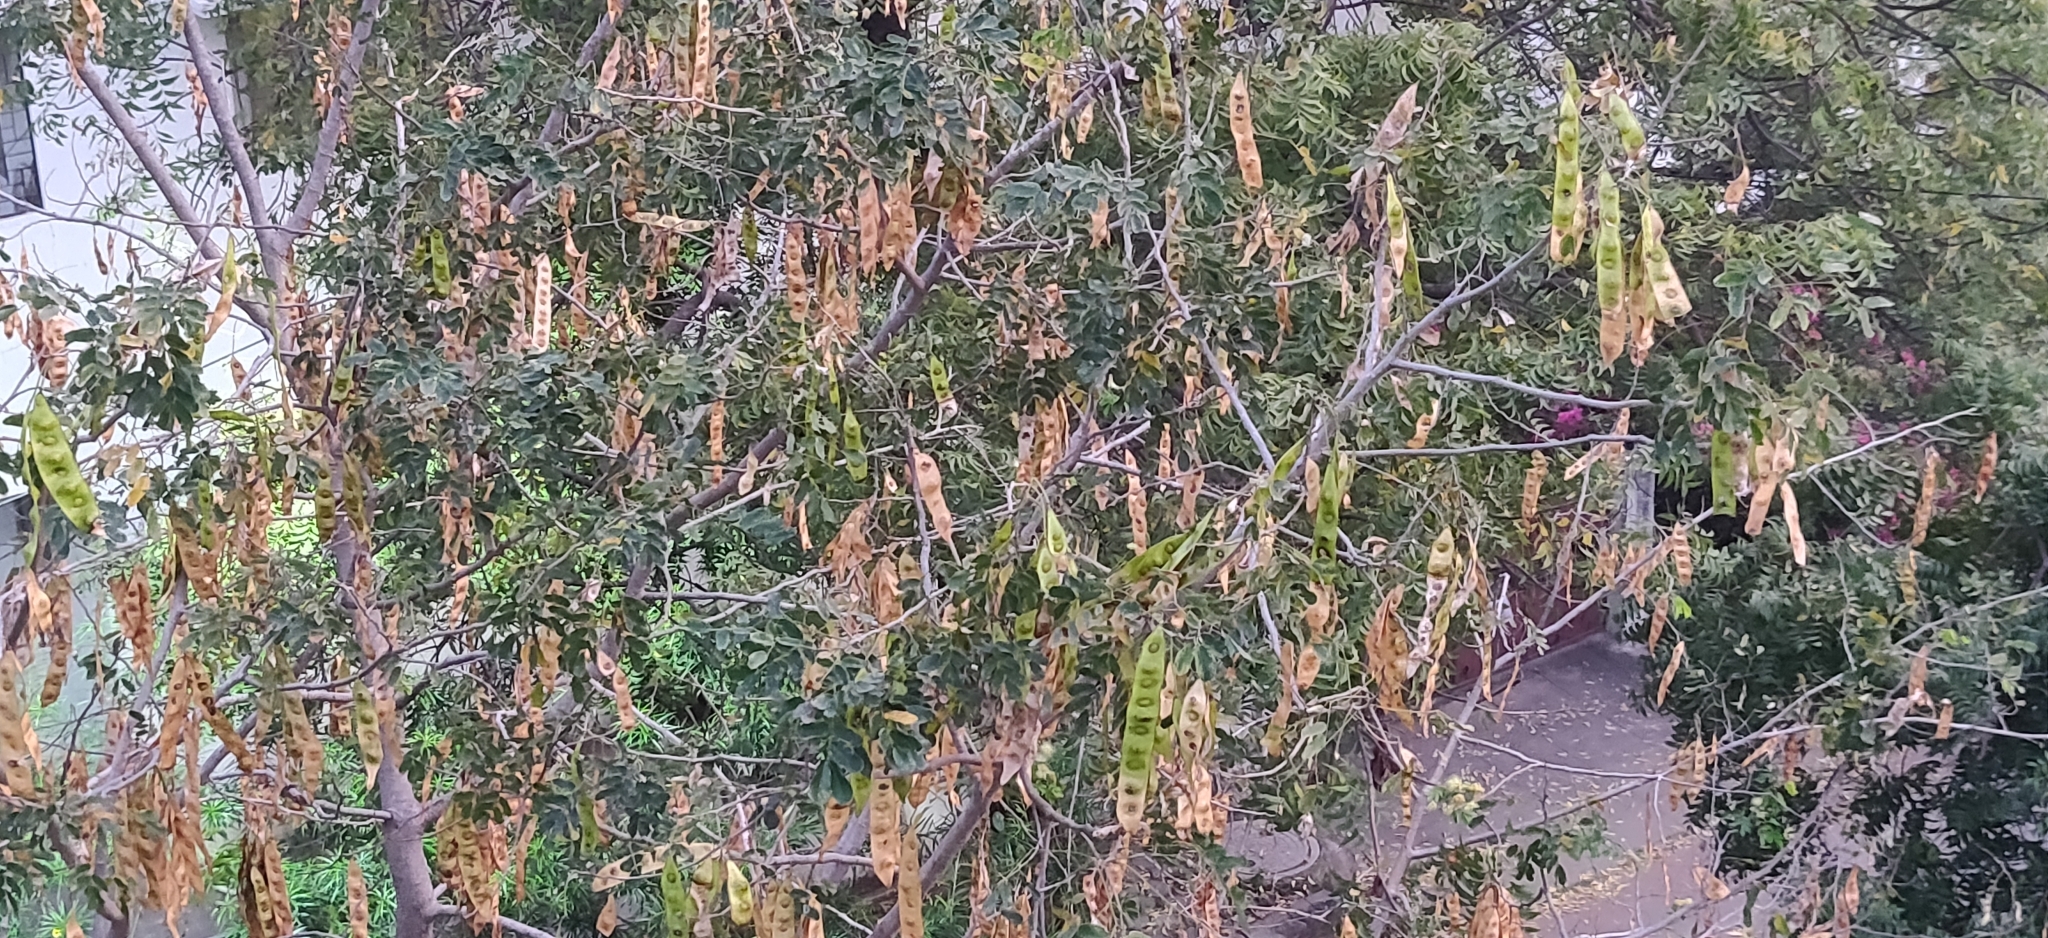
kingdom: Plantae
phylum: Tracheophyta
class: Magnoliopsida
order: Fabales
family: Fabaceae
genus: Albizia
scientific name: Albizia lebbeck
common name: Woman's tongue
